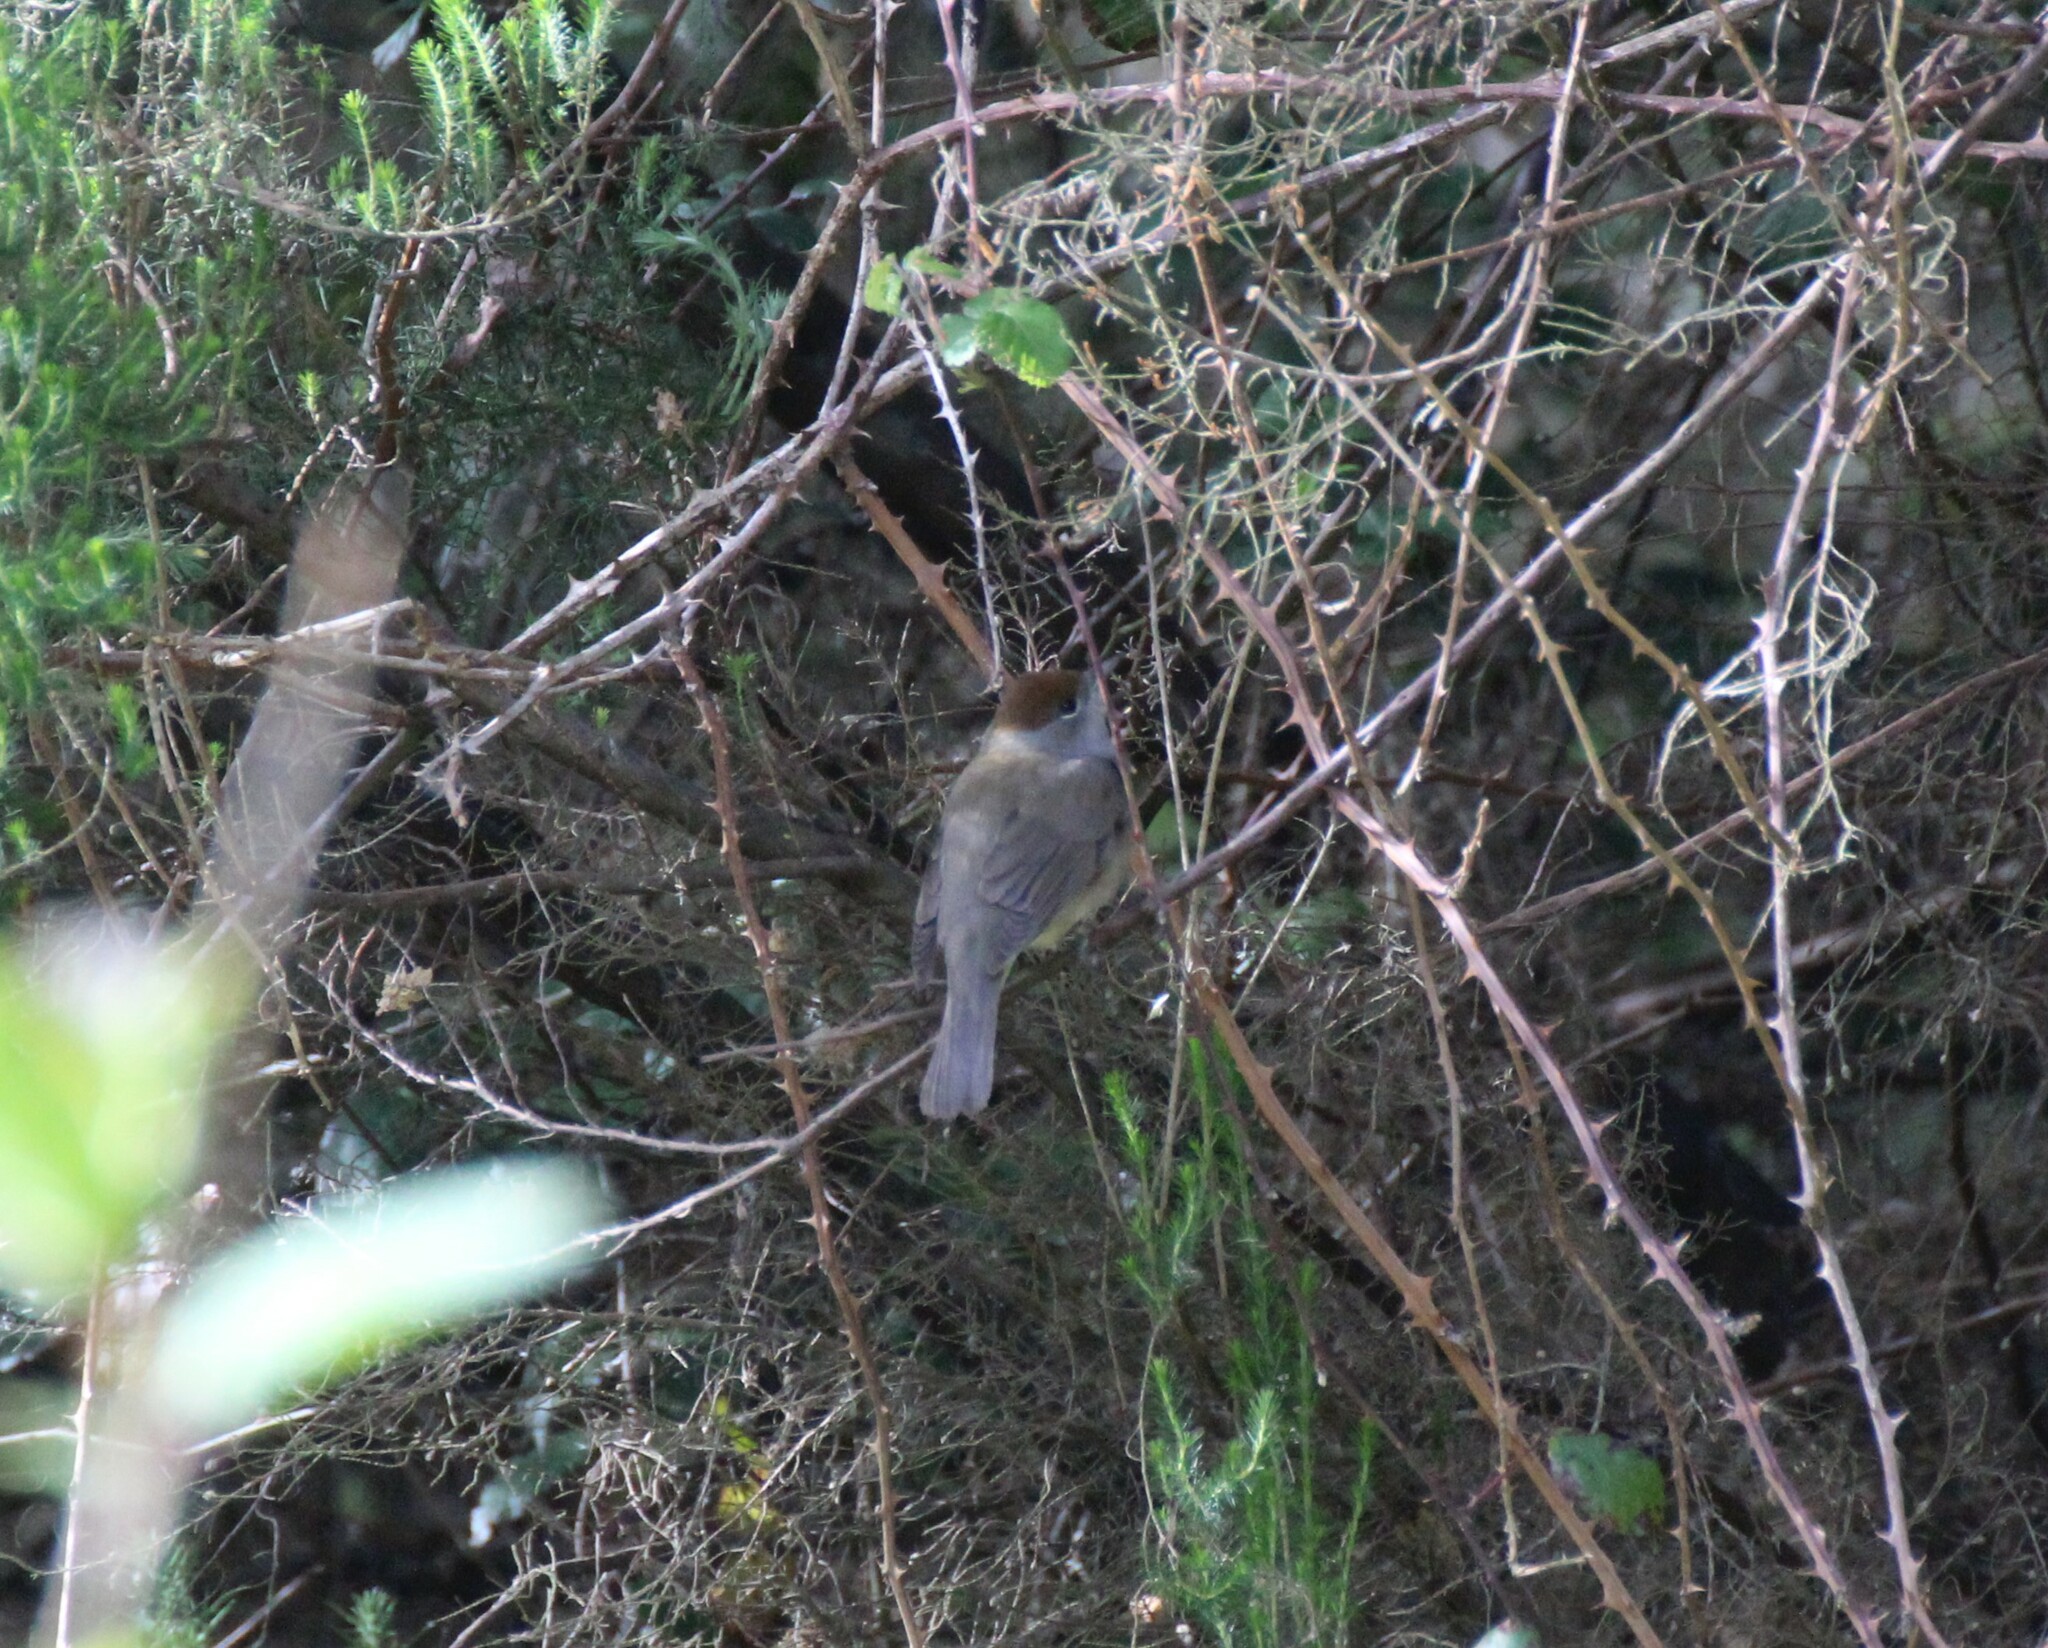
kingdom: Animalia
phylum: Chordata
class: Aves
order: Passeriformes
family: Sylviidae
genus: Sylvia
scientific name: Sylvia atricapilla
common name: Eurasian blackcap
